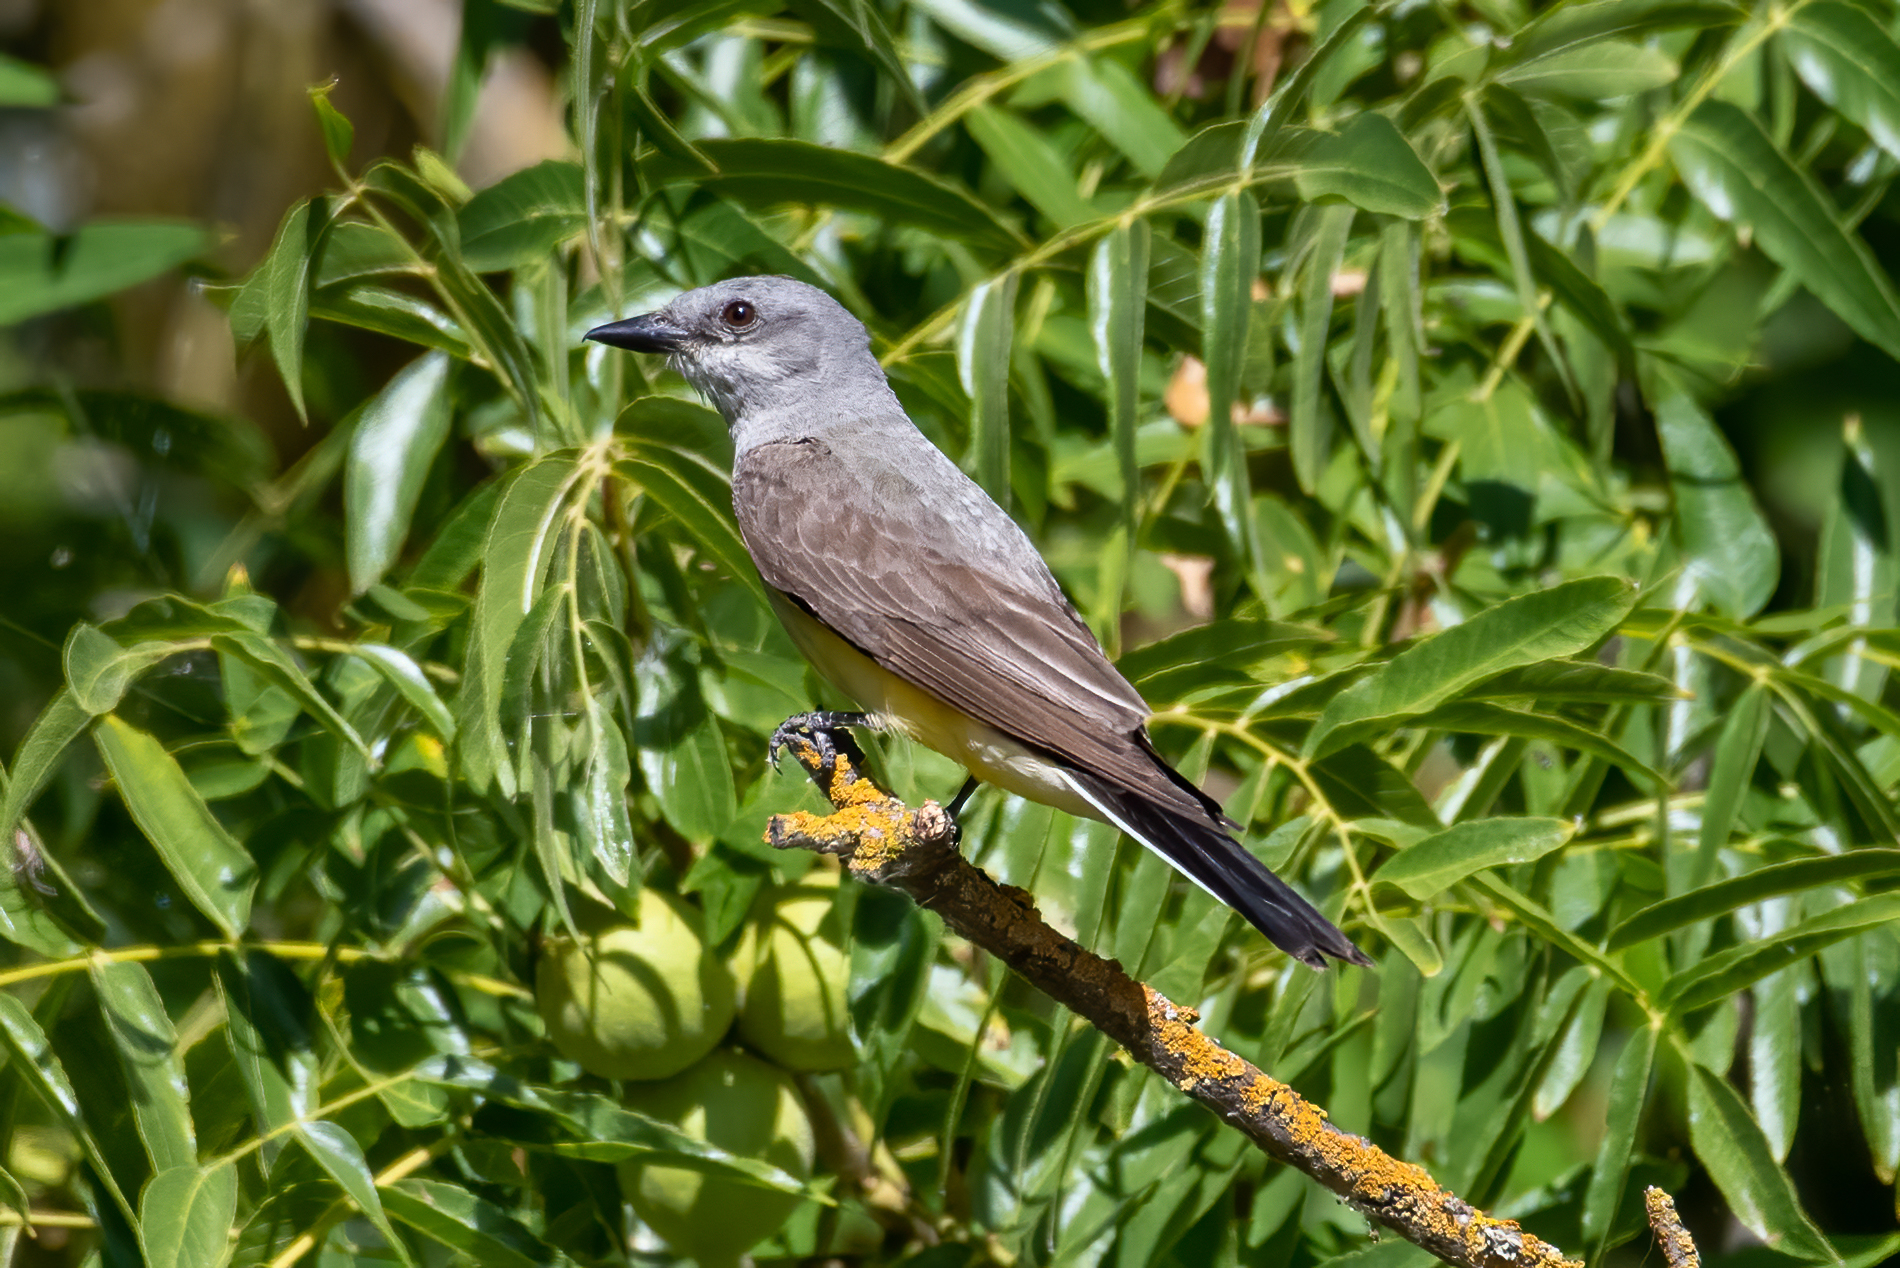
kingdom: Animalia
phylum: Chordata
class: Aves
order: Passeriformes
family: Tyrannidae
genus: Tyrannus
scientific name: Tyrannus verticalis
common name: Western kingbird
